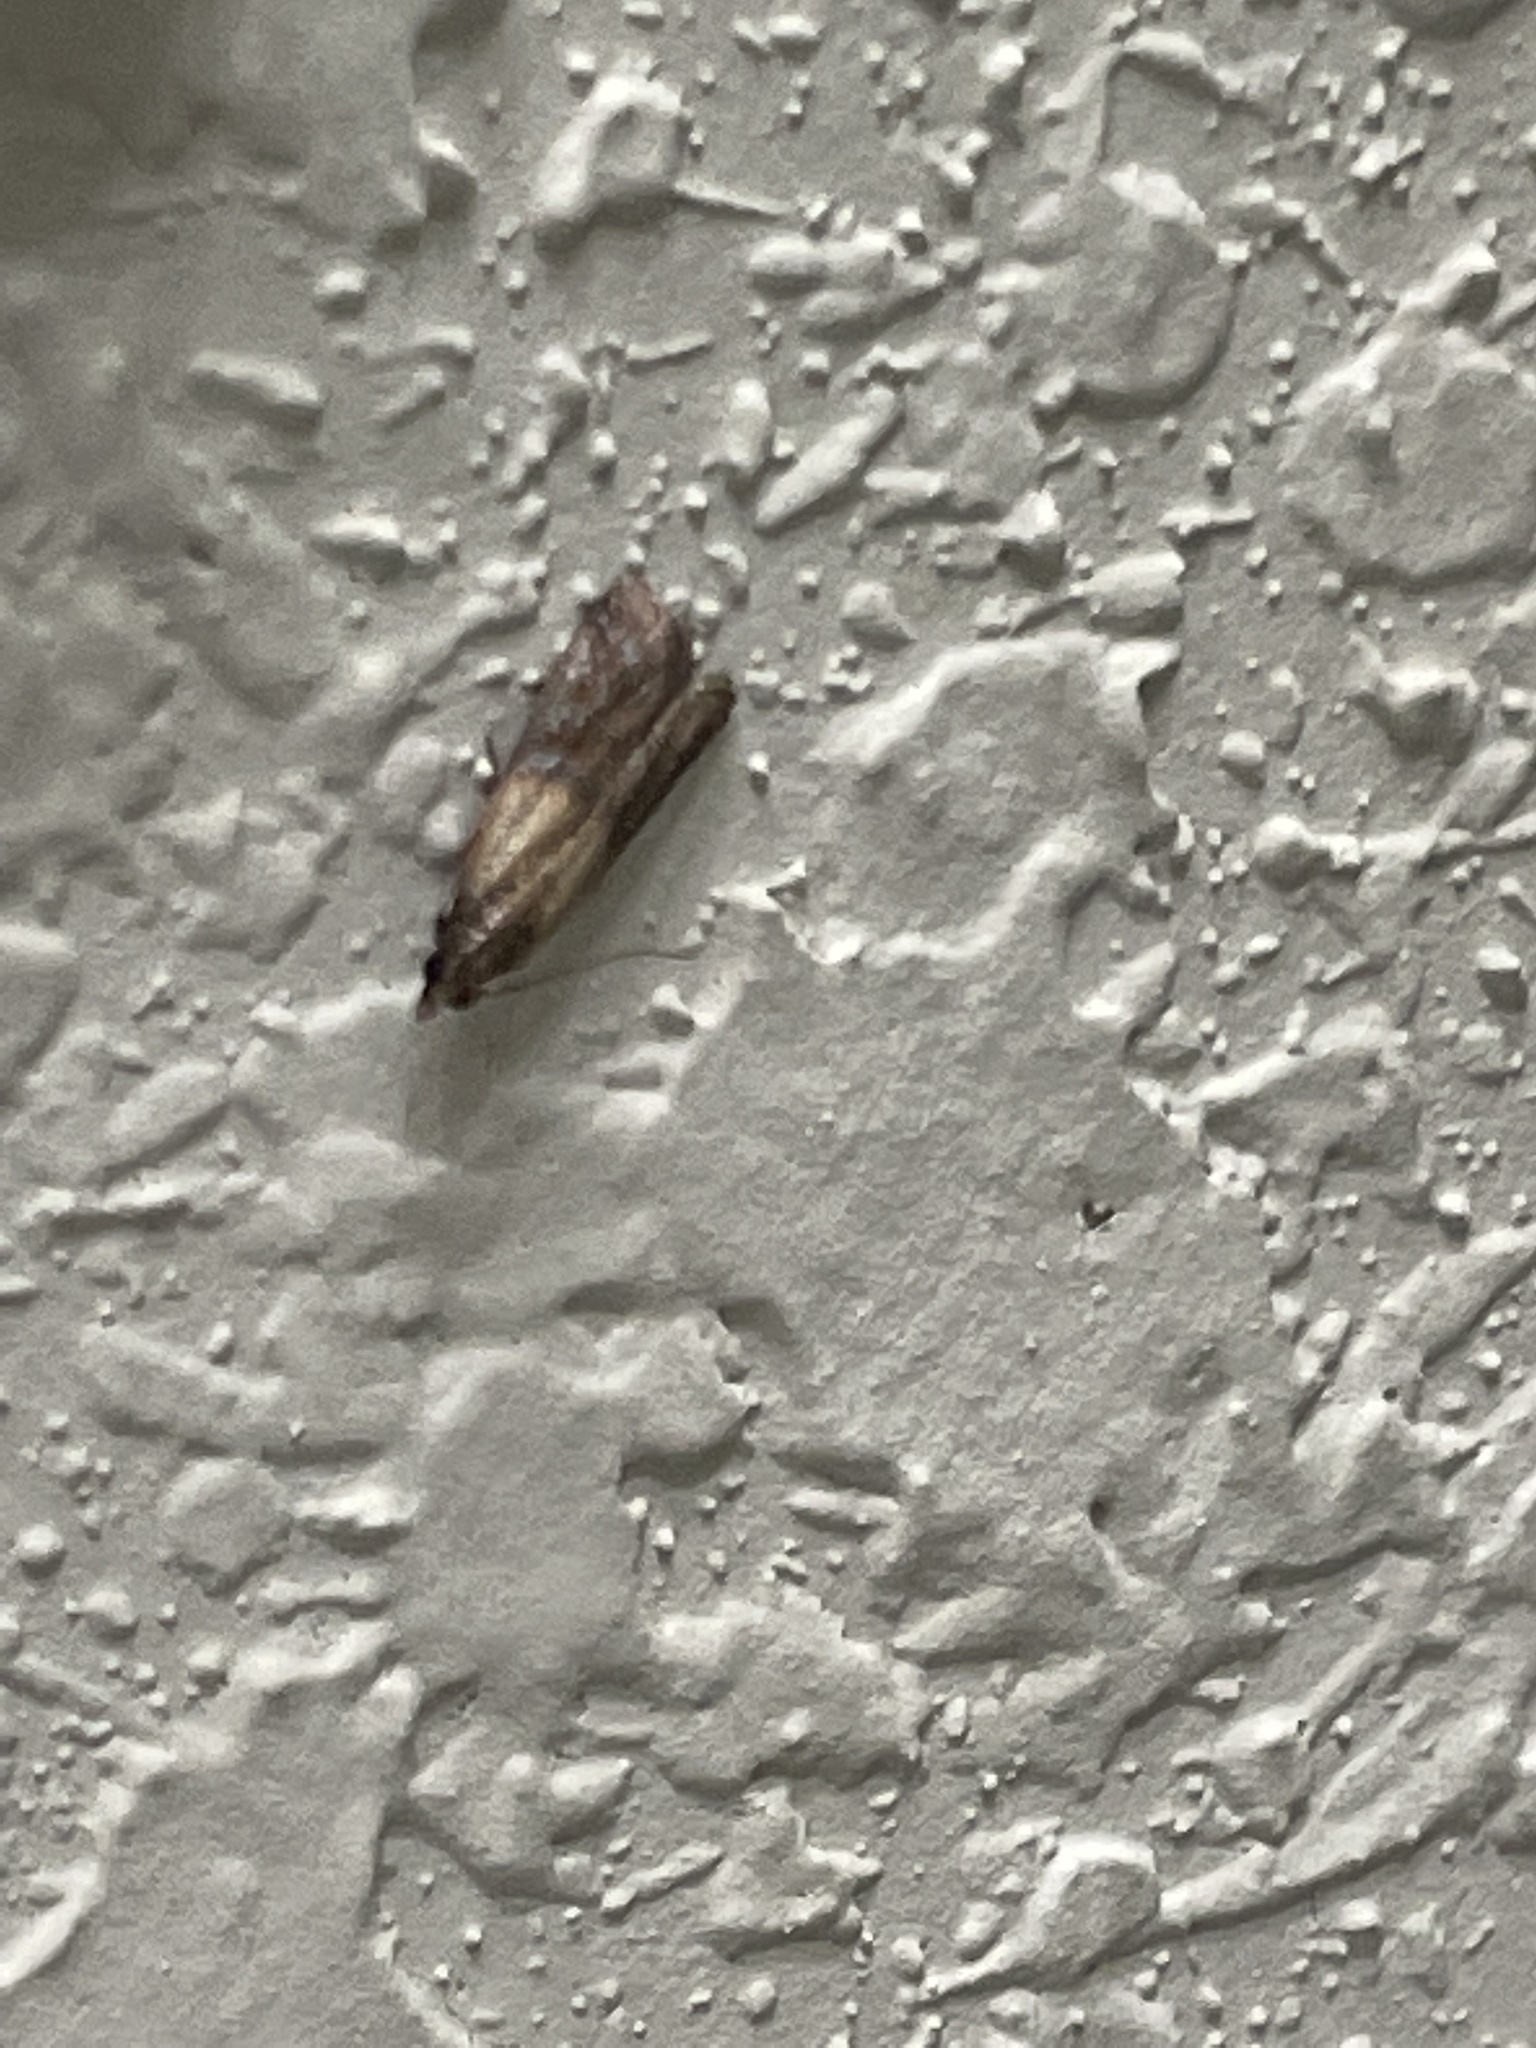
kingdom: Animalia
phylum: Arthropoda
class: Insecta
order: Lepidoptera
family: Pyralidae
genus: Plodia
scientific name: Plodia interpunctella
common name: Indian meal moth
